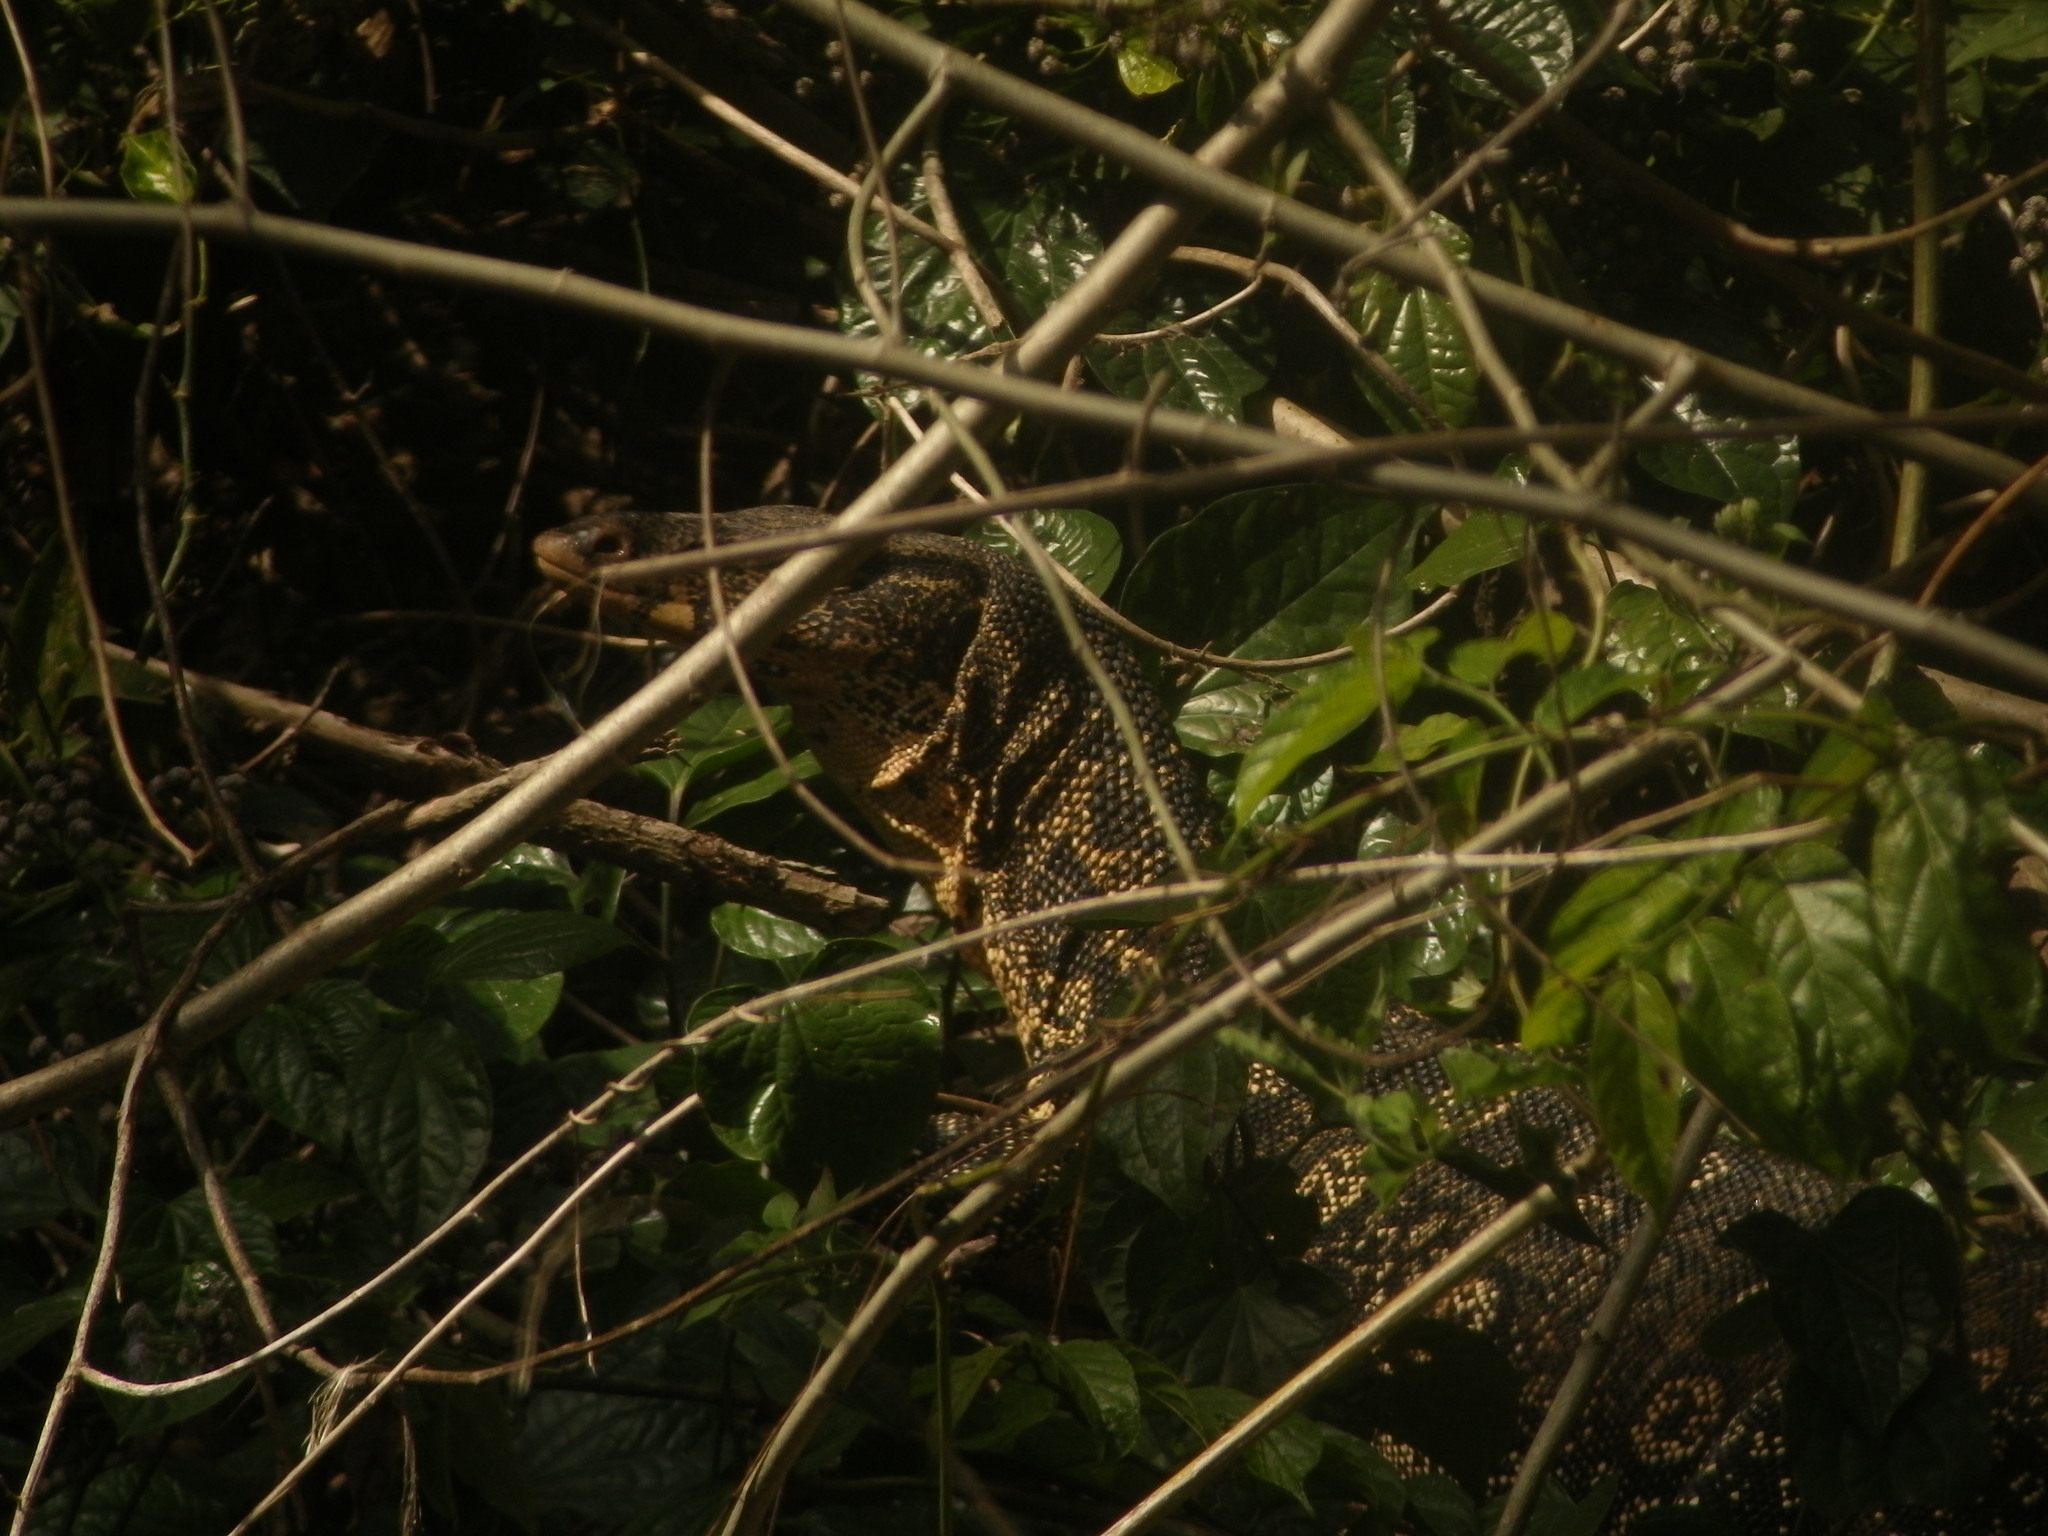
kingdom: Animalia
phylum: Chordata
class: Squamata
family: Varanidae
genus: Varanus
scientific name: Varanus salvator
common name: Common water monitor
